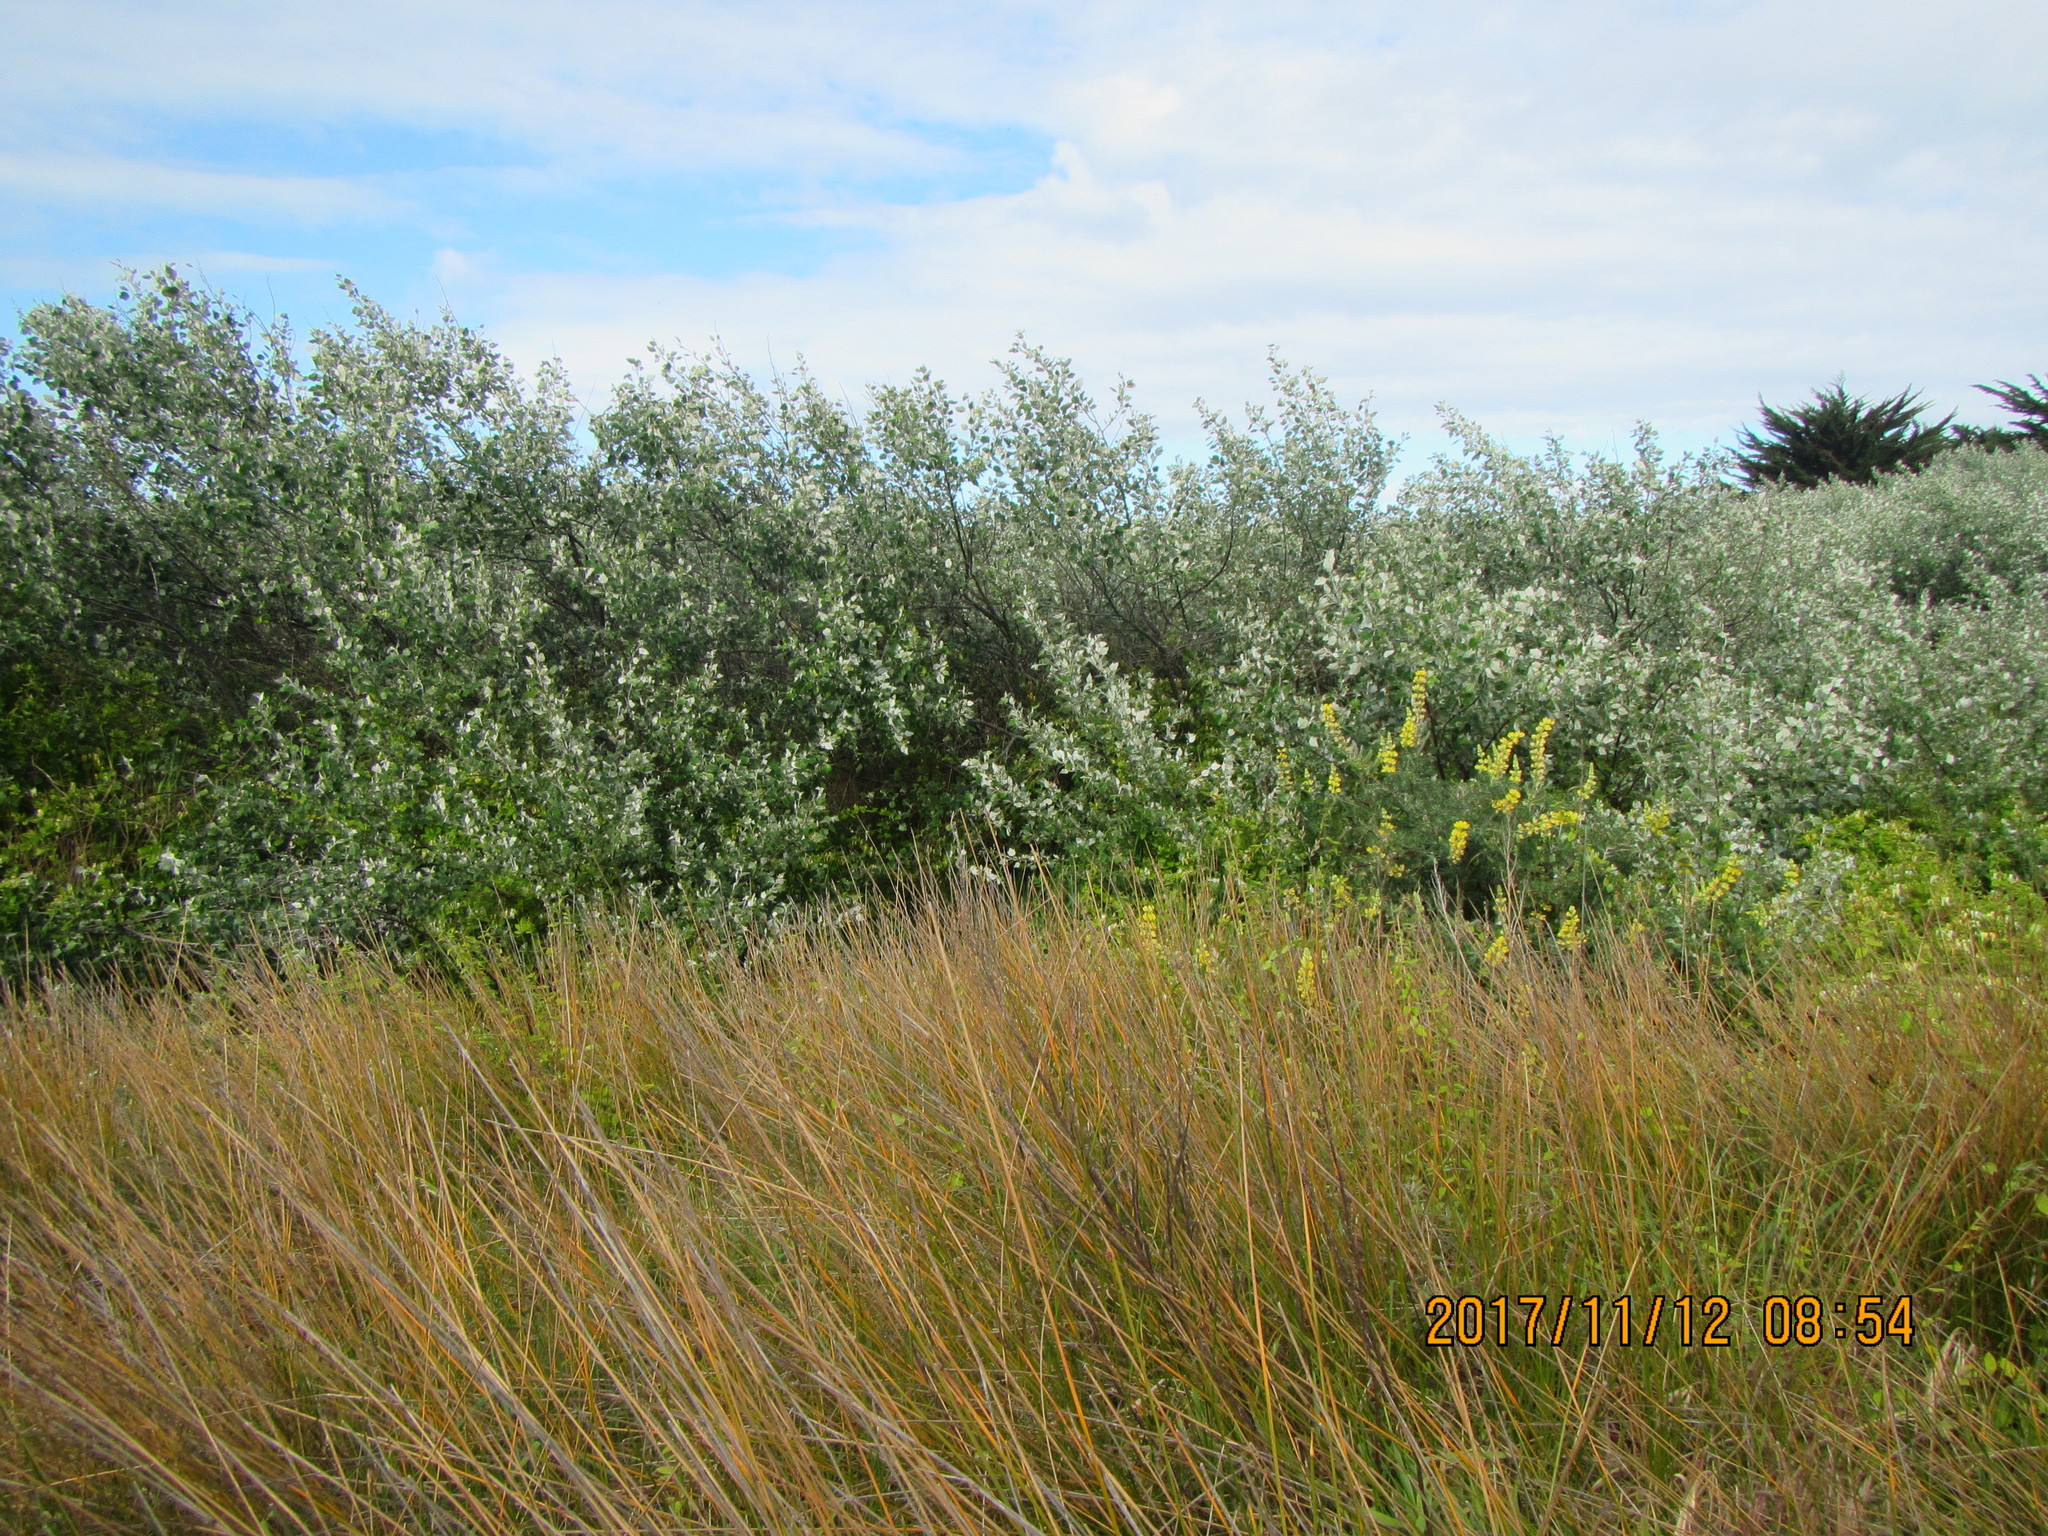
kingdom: Plantae
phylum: Tracheophyta
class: Magnoliopsida
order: Fabales
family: Fabaceae
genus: Lupinus
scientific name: Lupinus arboreus
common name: Yellow bush lupine
